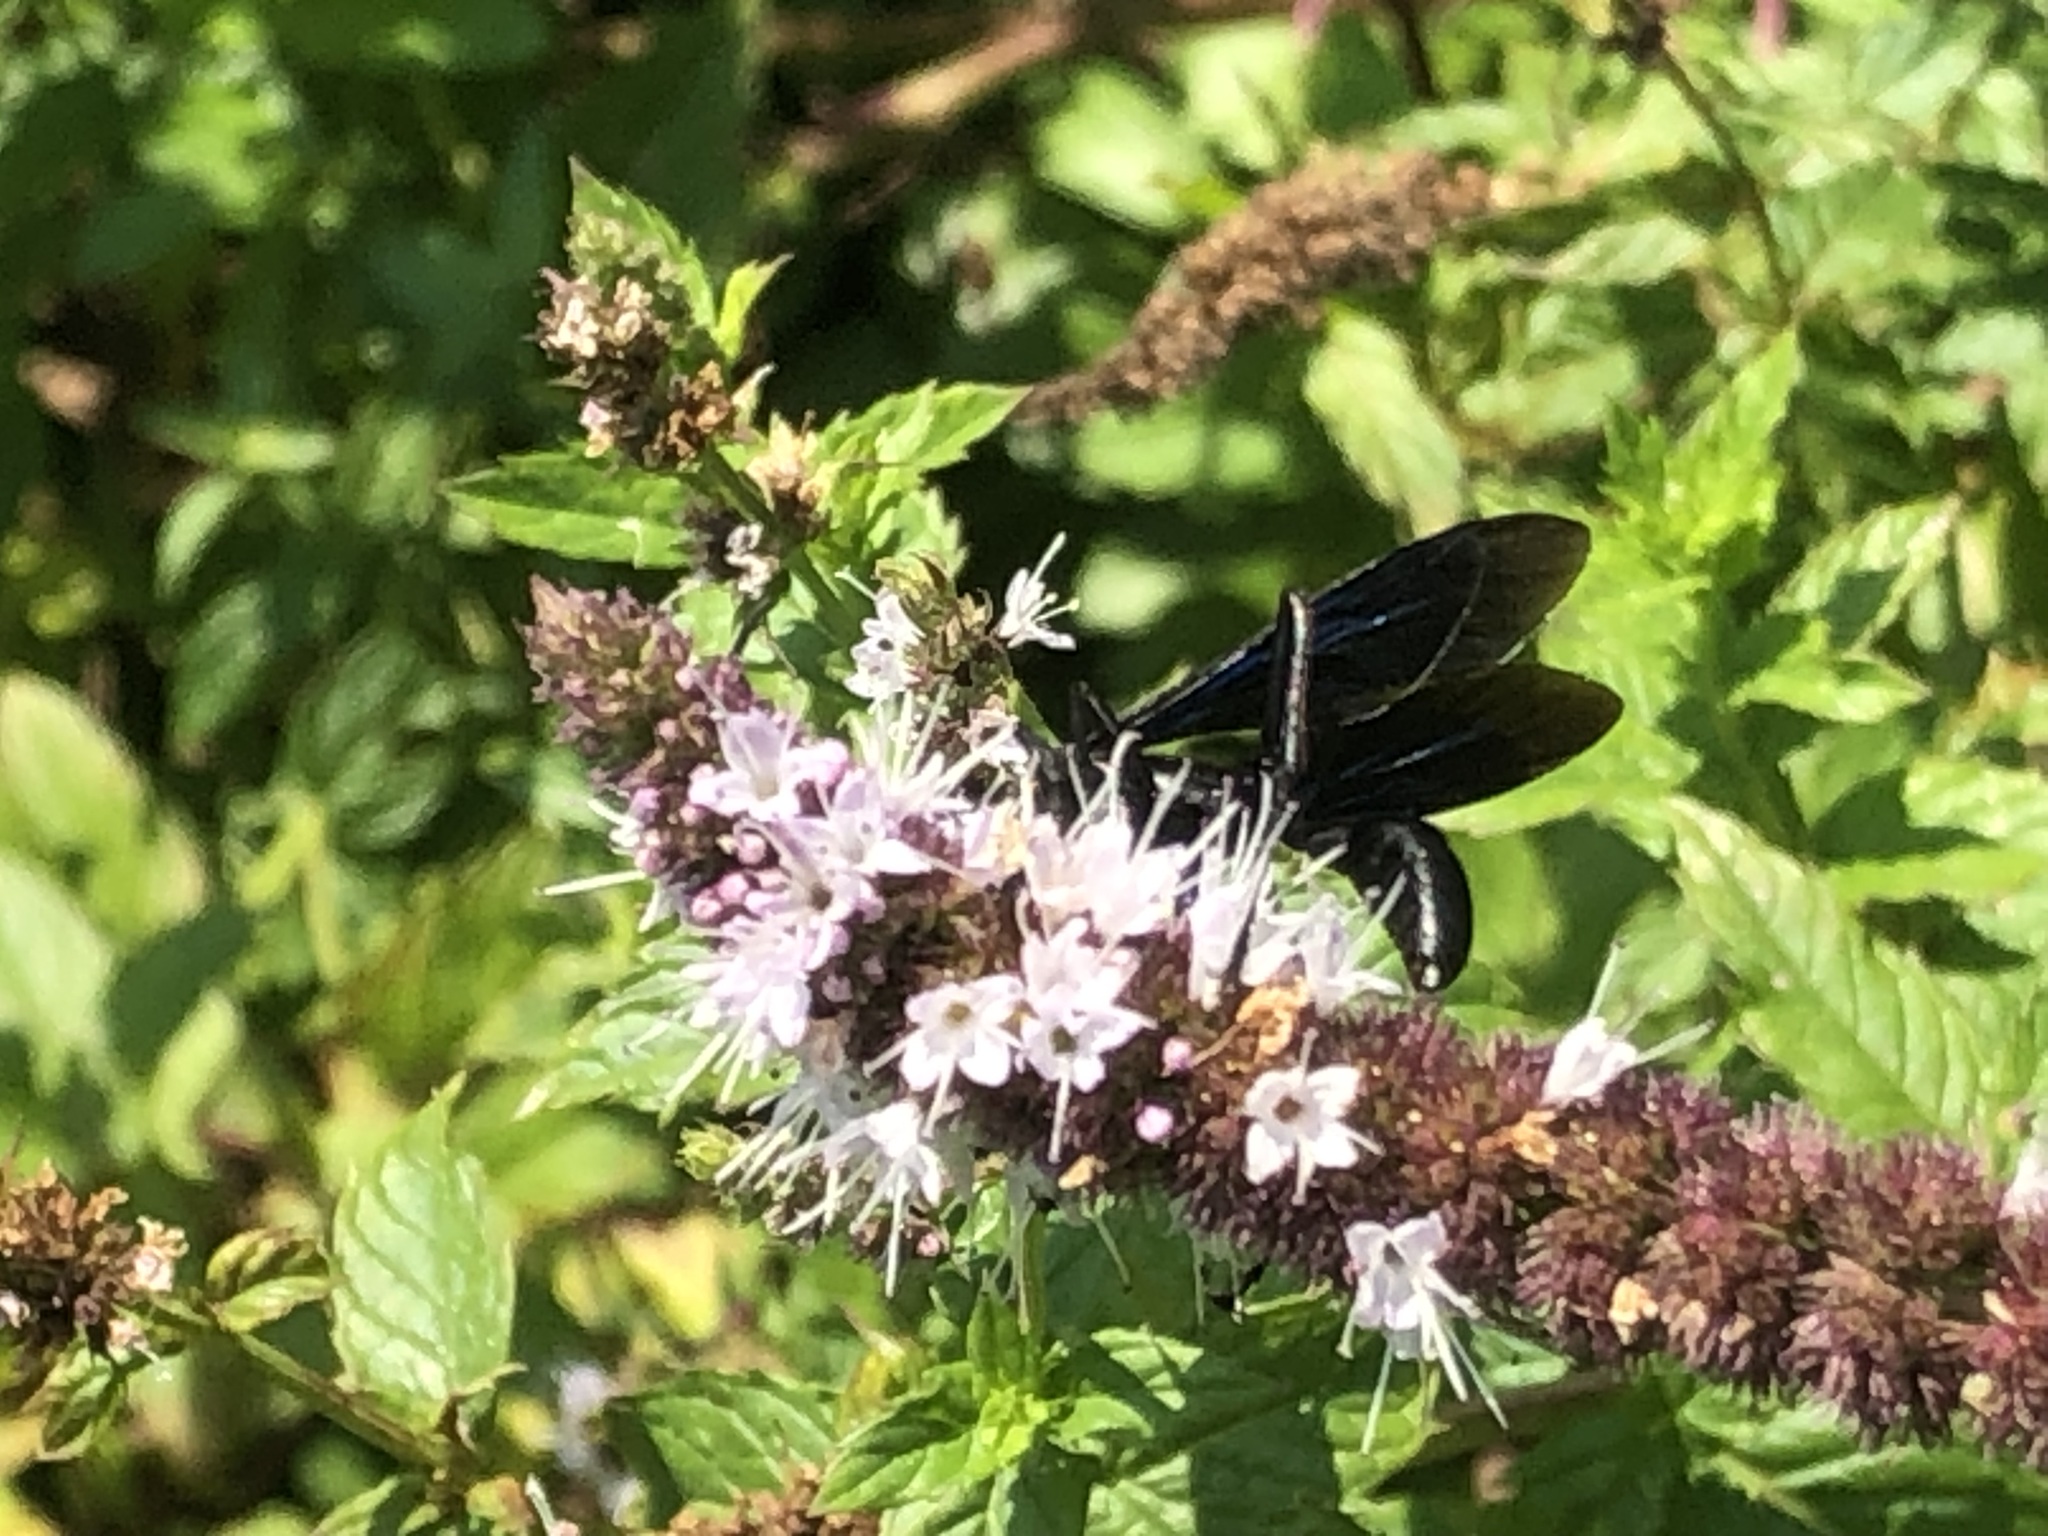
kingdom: Animalia
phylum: Arthropoda
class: Insecta
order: Hymenoptera
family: Sphecidae
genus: Sphex
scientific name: Sphex pensylvanicus
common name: Great black digger wasp
